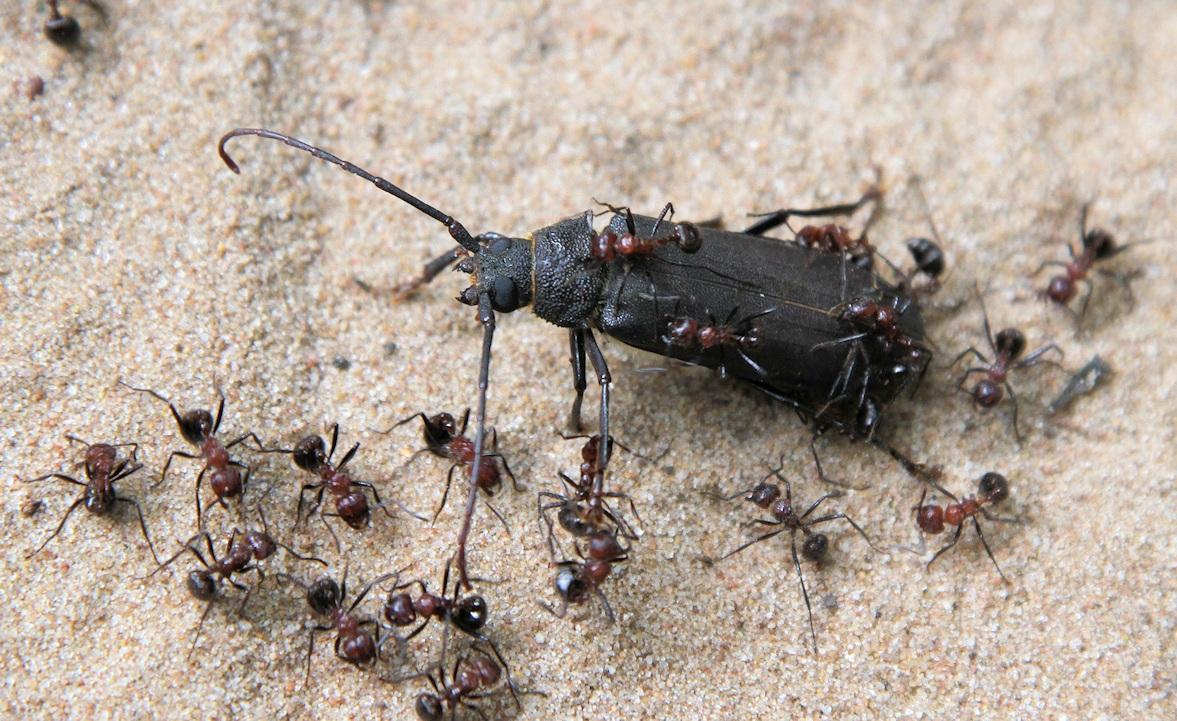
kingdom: Animalia
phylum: Arthropoda
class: Insecta
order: Coleoptera
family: Cerambycidae
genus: Paramacrotoma
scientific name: Paramacrotoma dimidiaticornis
